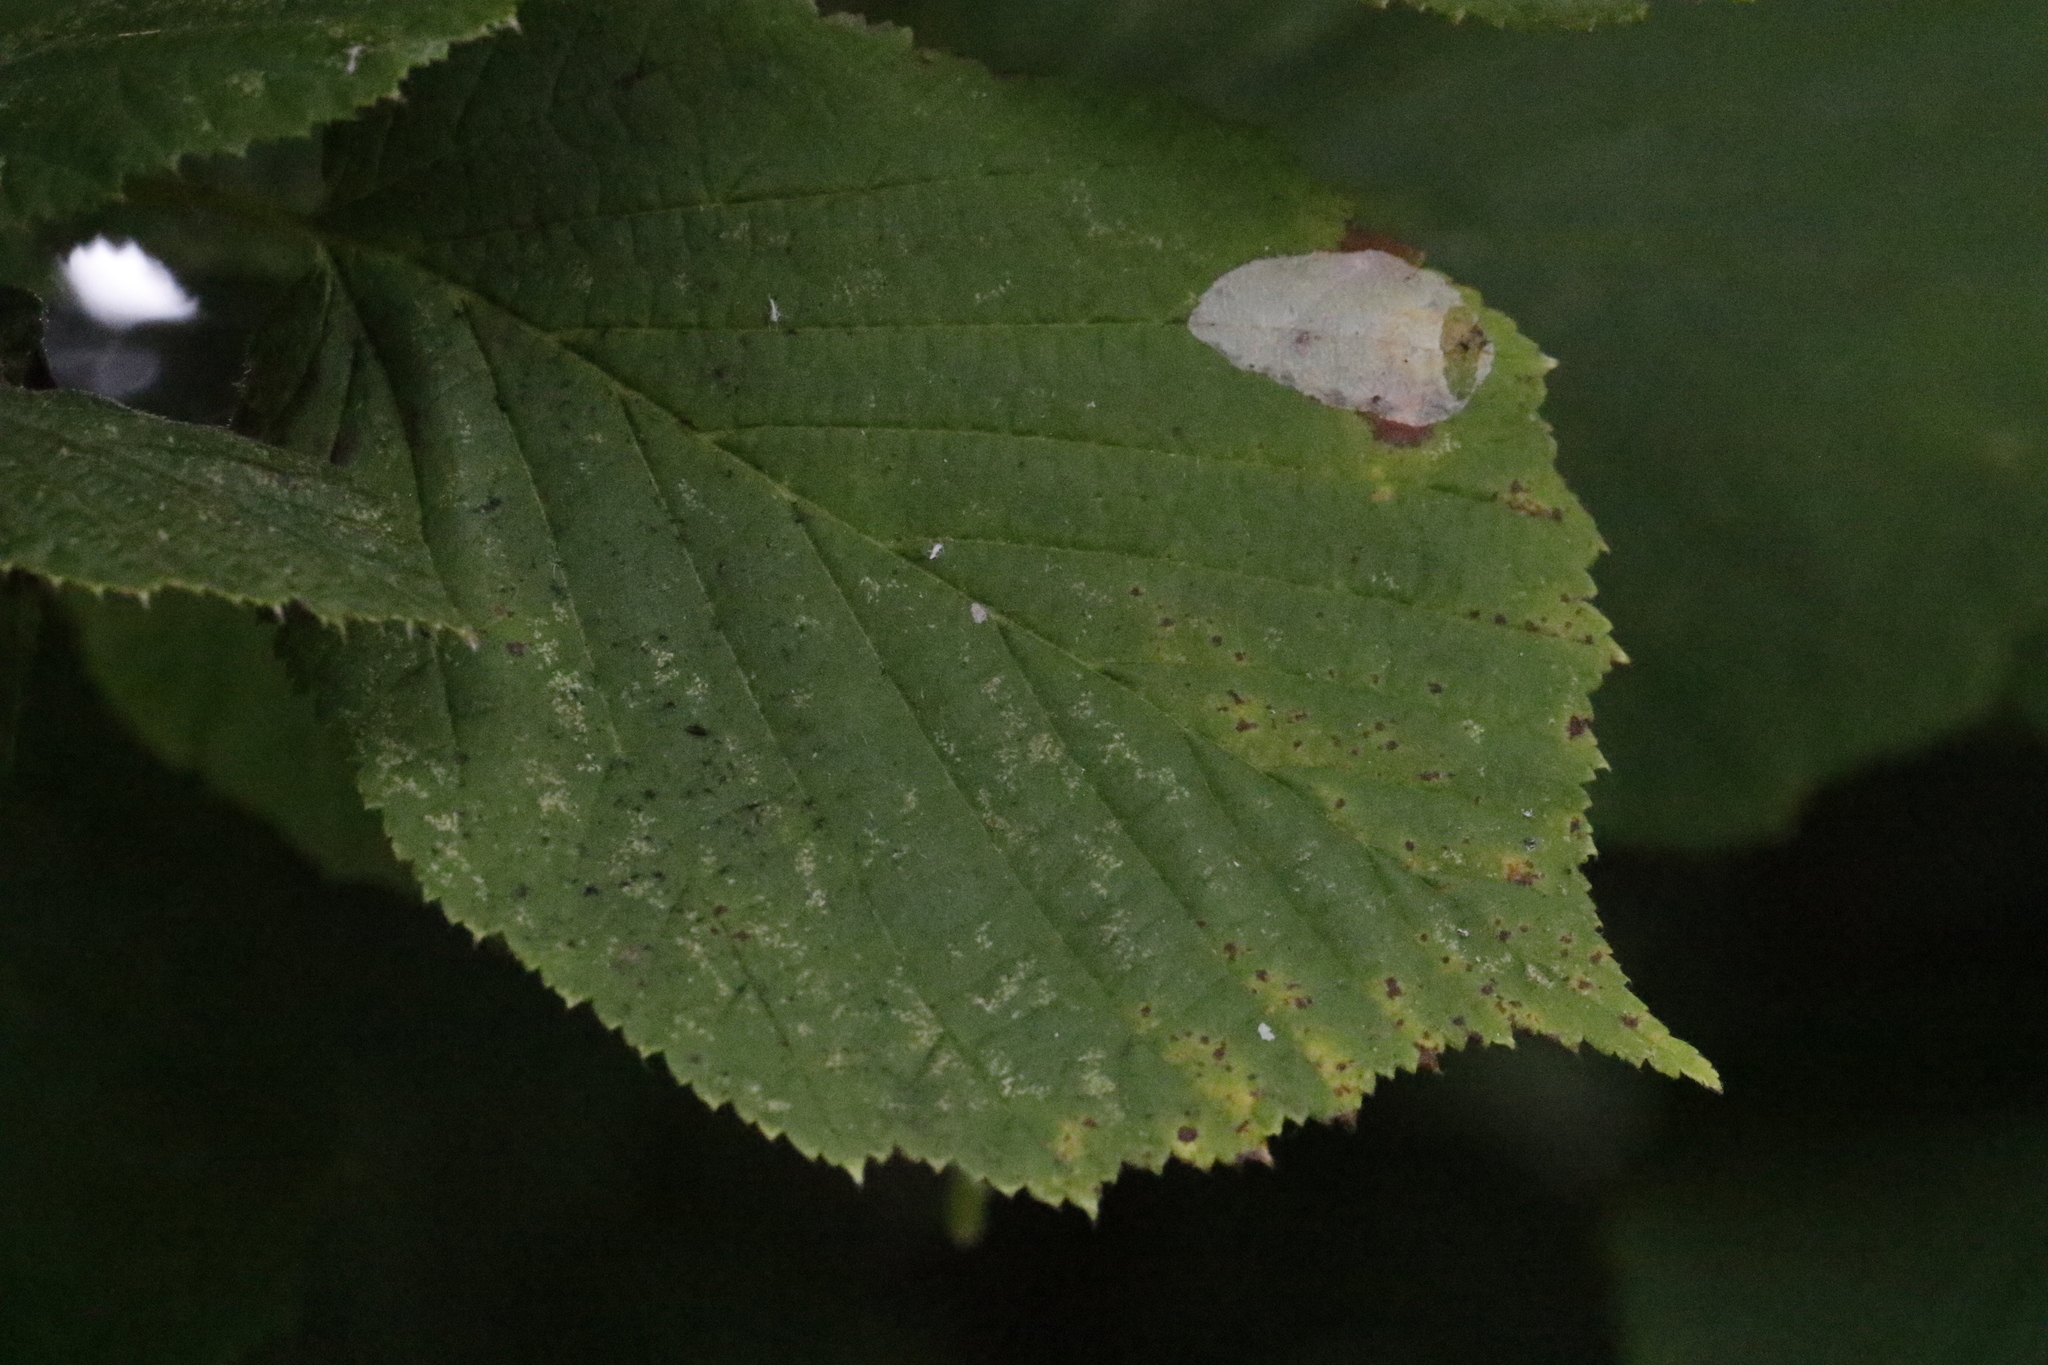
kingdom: Plantae
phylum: Tracheophyta
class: Magnoliopsida
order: Fagales
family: Betulaceae
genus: Corylus
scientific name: Corylus avellana
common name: European hazel
